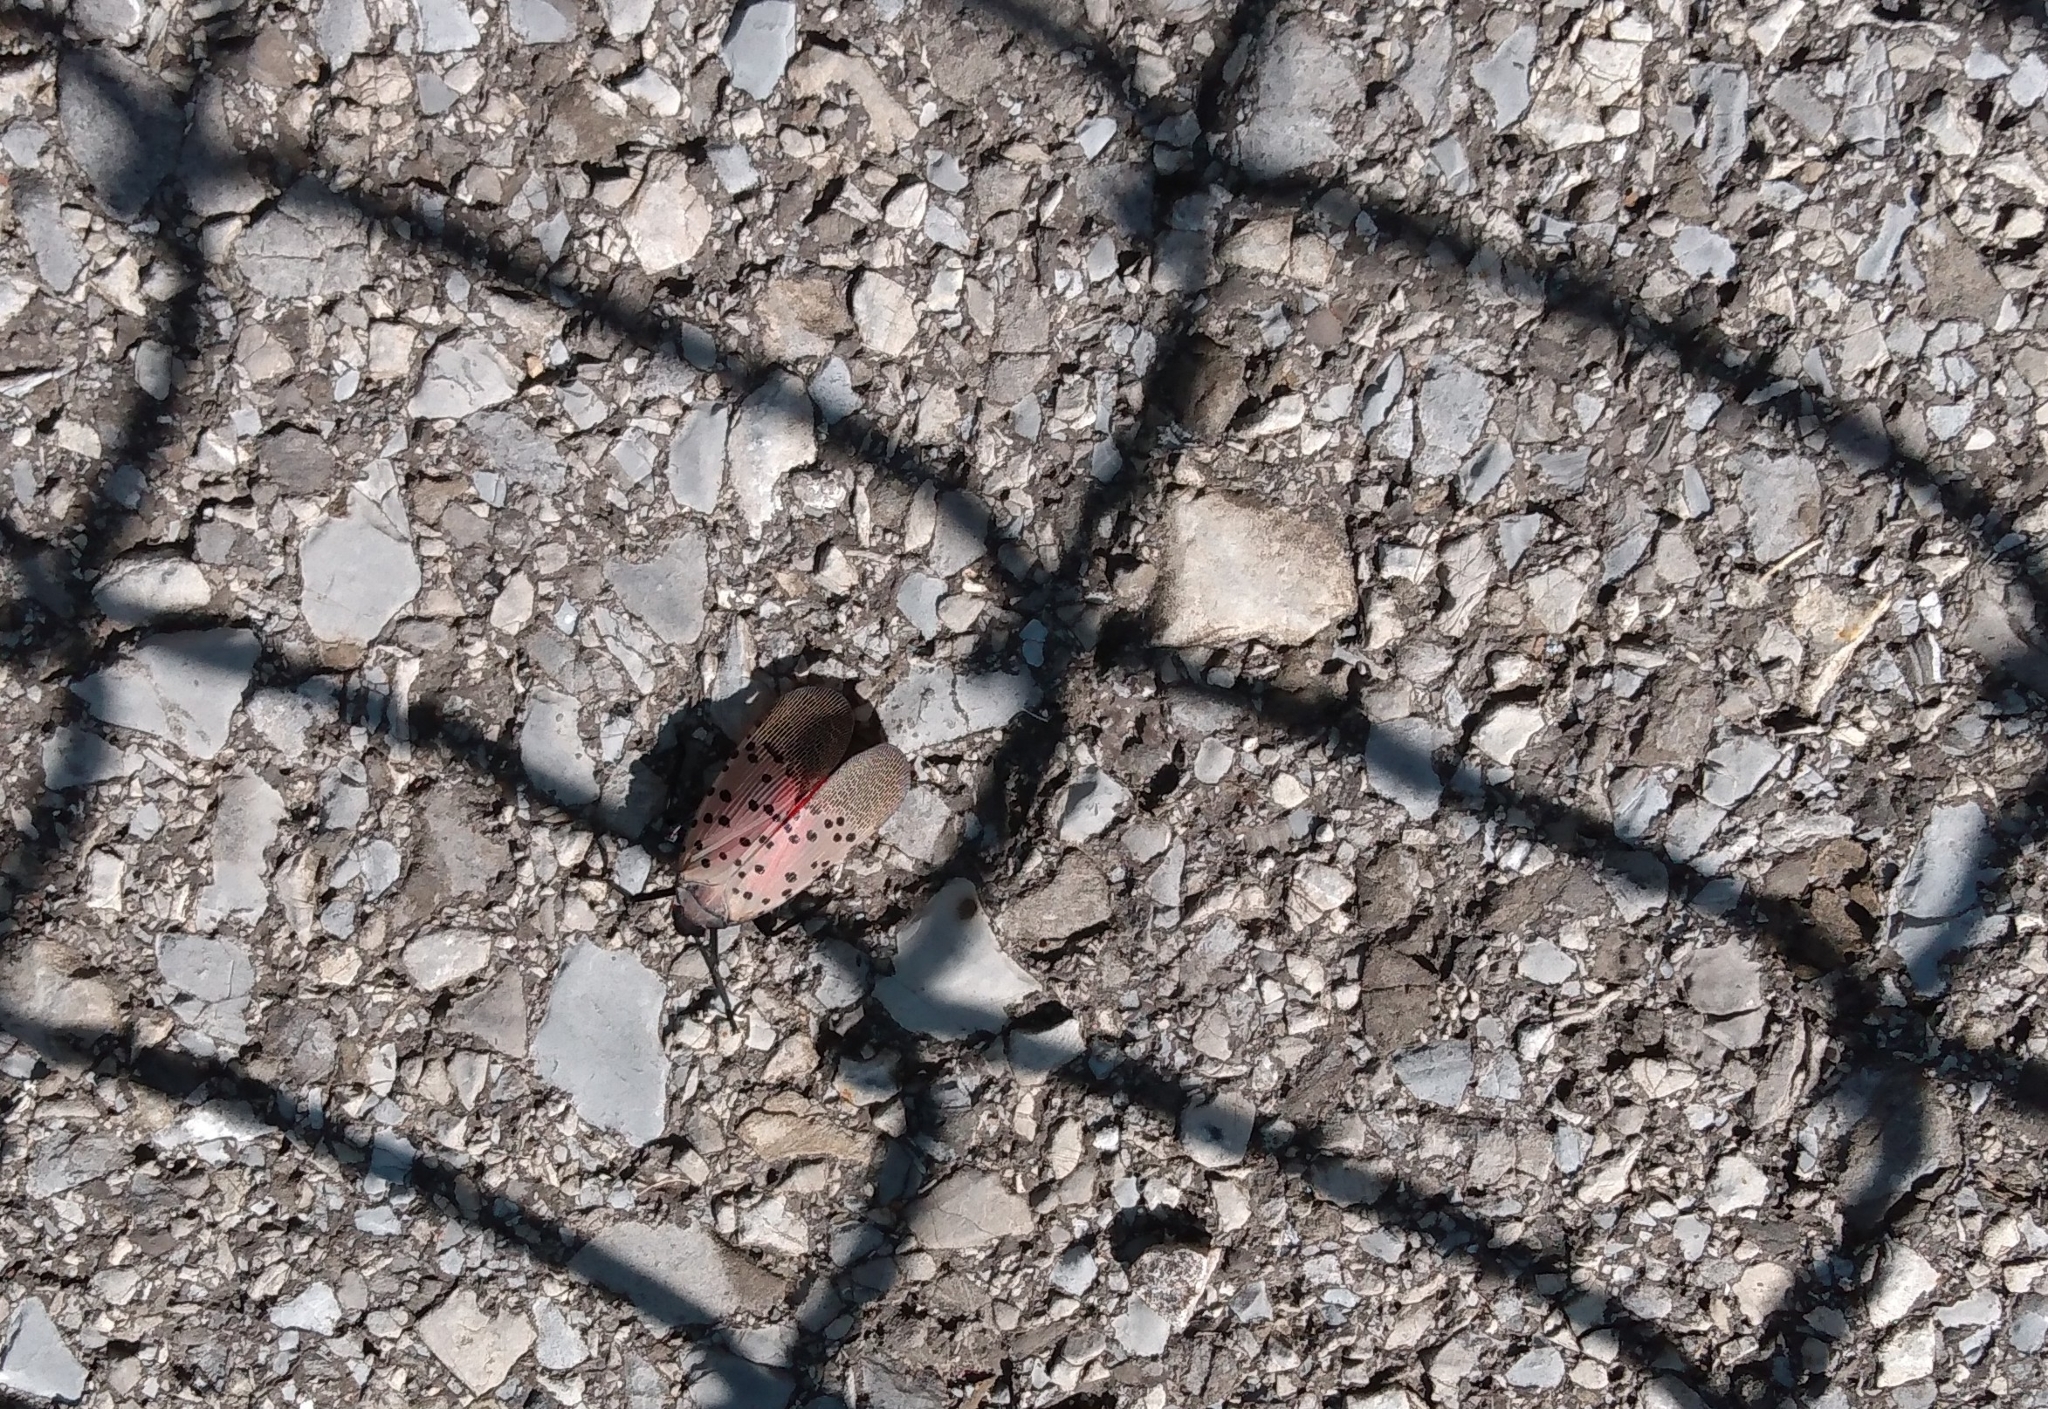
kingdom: Animalia
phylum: Arthropoda
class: Insecta
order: Hemiptera
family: Fulgoridae
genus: Lycorma
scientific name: Lycorma delicatula
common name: Spotted lanternfly
